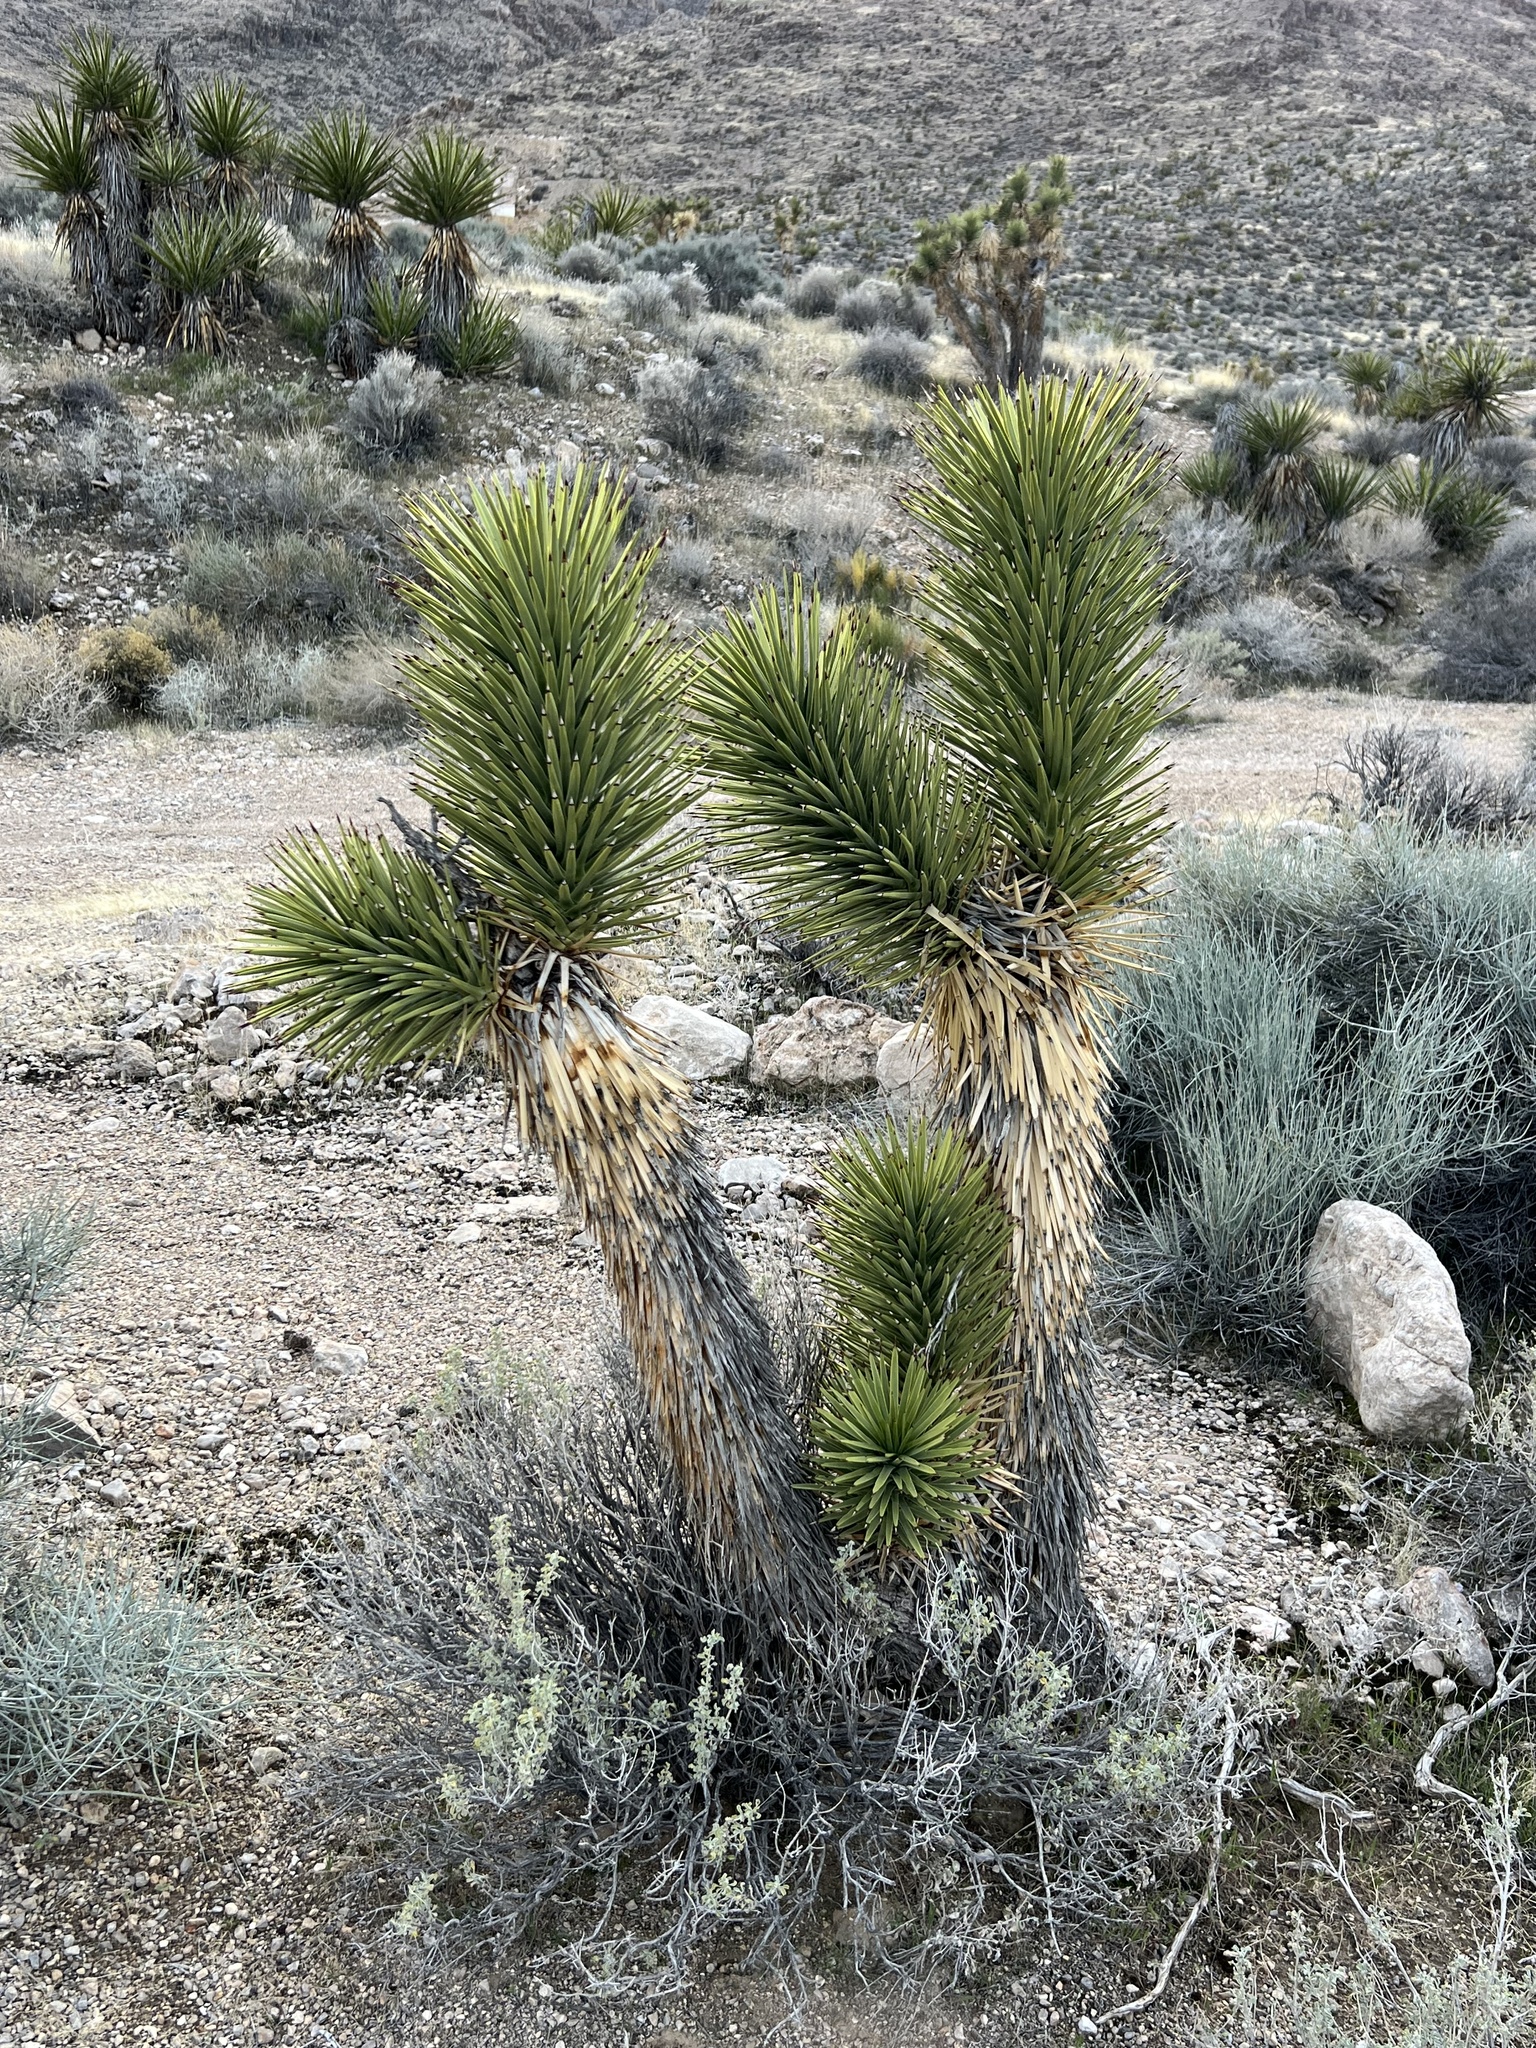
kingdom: Plantae
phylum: Tracheophyta
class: Liliopsida
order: Asparagales
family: Asparagaceae
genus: Yucca
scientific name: Yucca brevifolia
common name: Joshua tree
